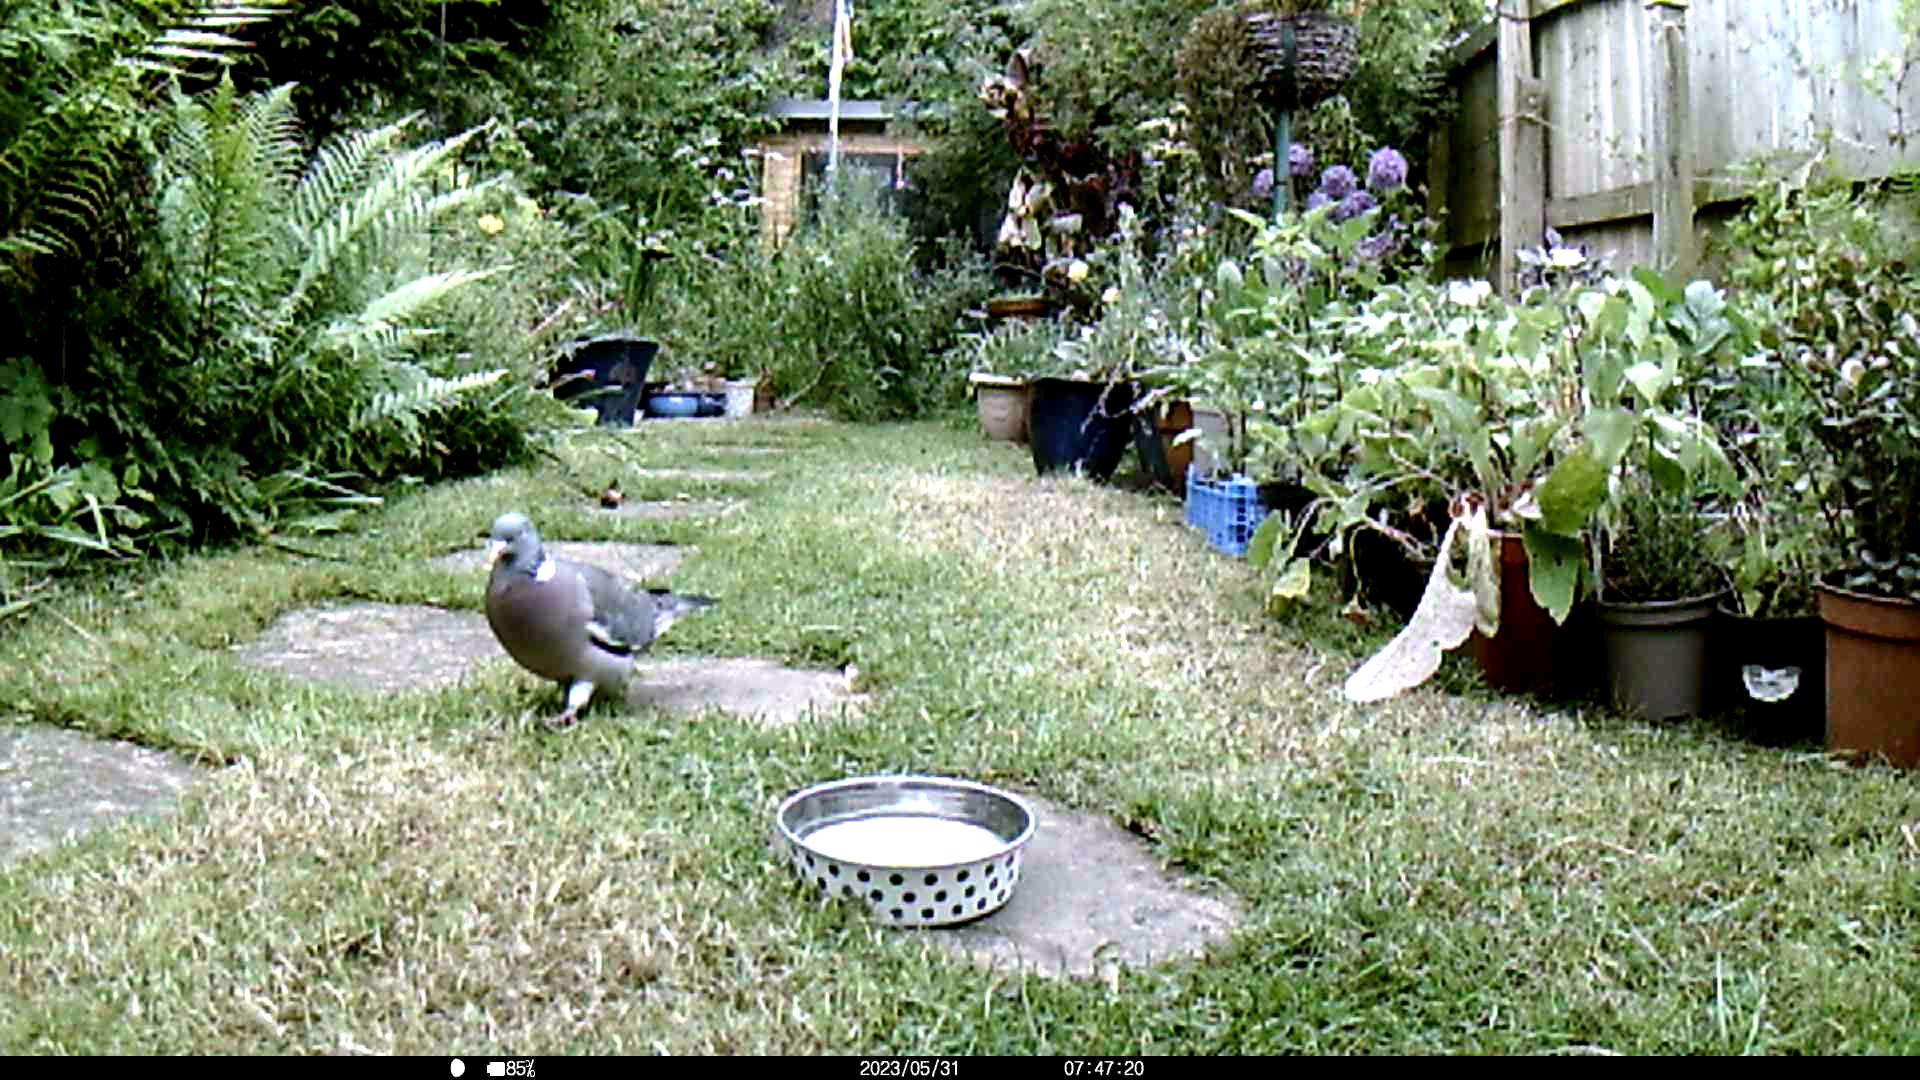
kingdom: Animalia
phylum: Chordata
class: Aves
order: Columbiformes
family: Columbidae
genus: Columba
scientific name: Columba palumbus
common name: Common wood pigeon
